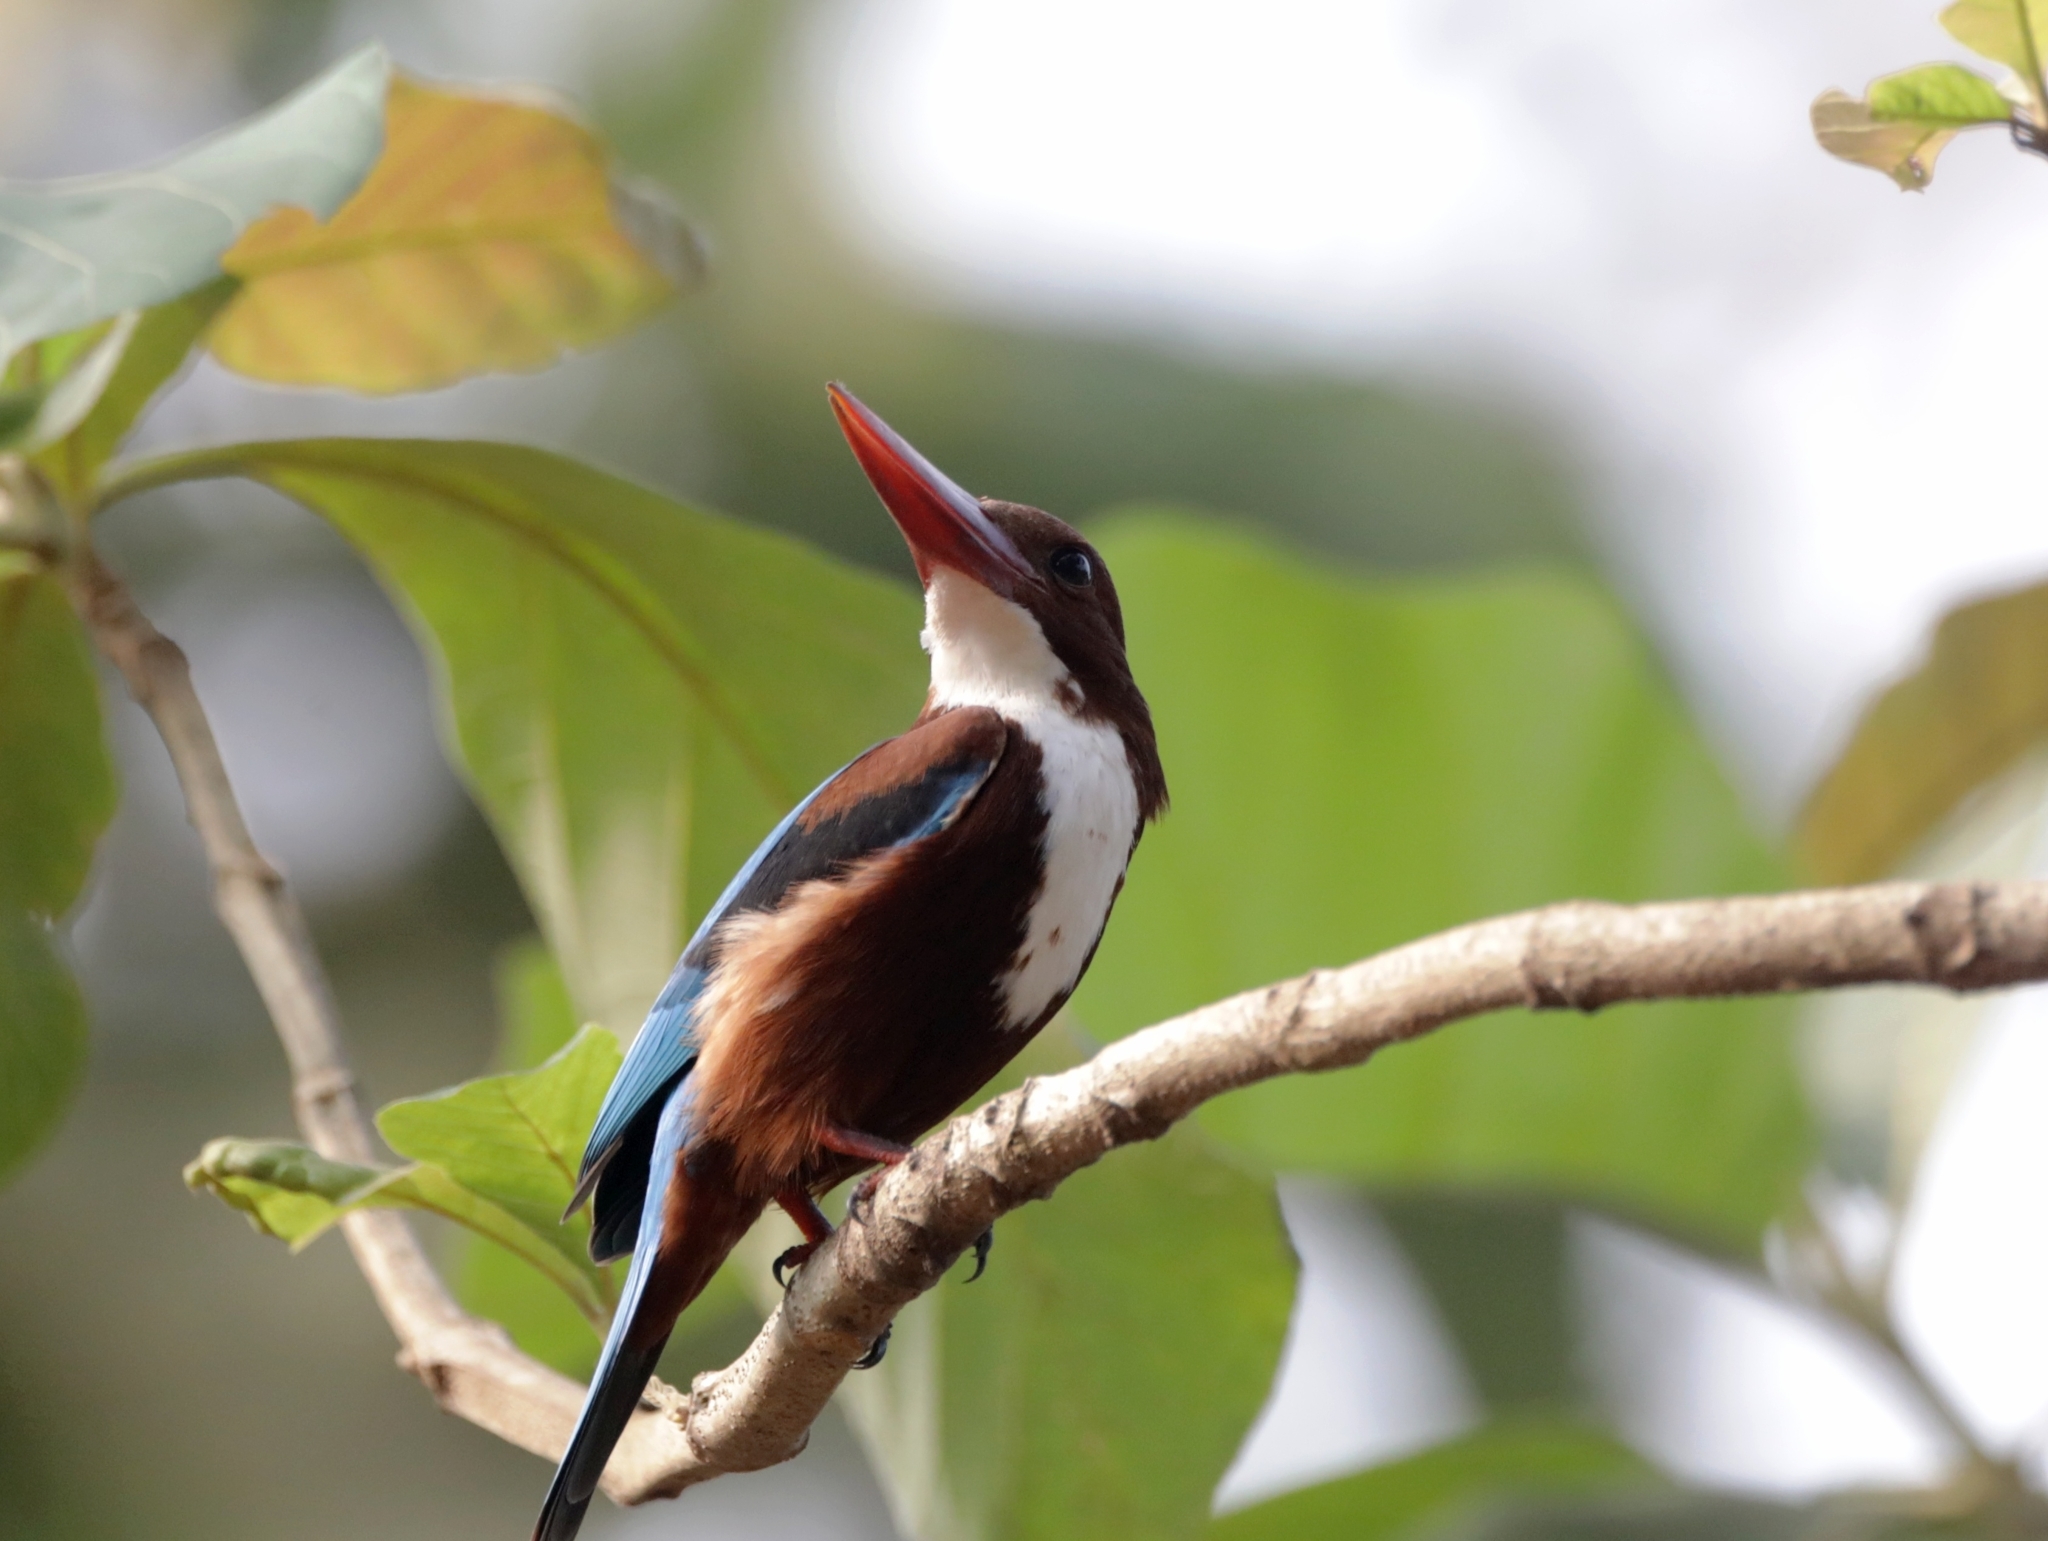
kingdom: Animalia
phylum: Chordata
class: Aves
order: Coraciiformes
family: Alcedinidae
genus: Halcyon
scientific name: Halcyon smyrnensis
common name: White-throated kingfisher
